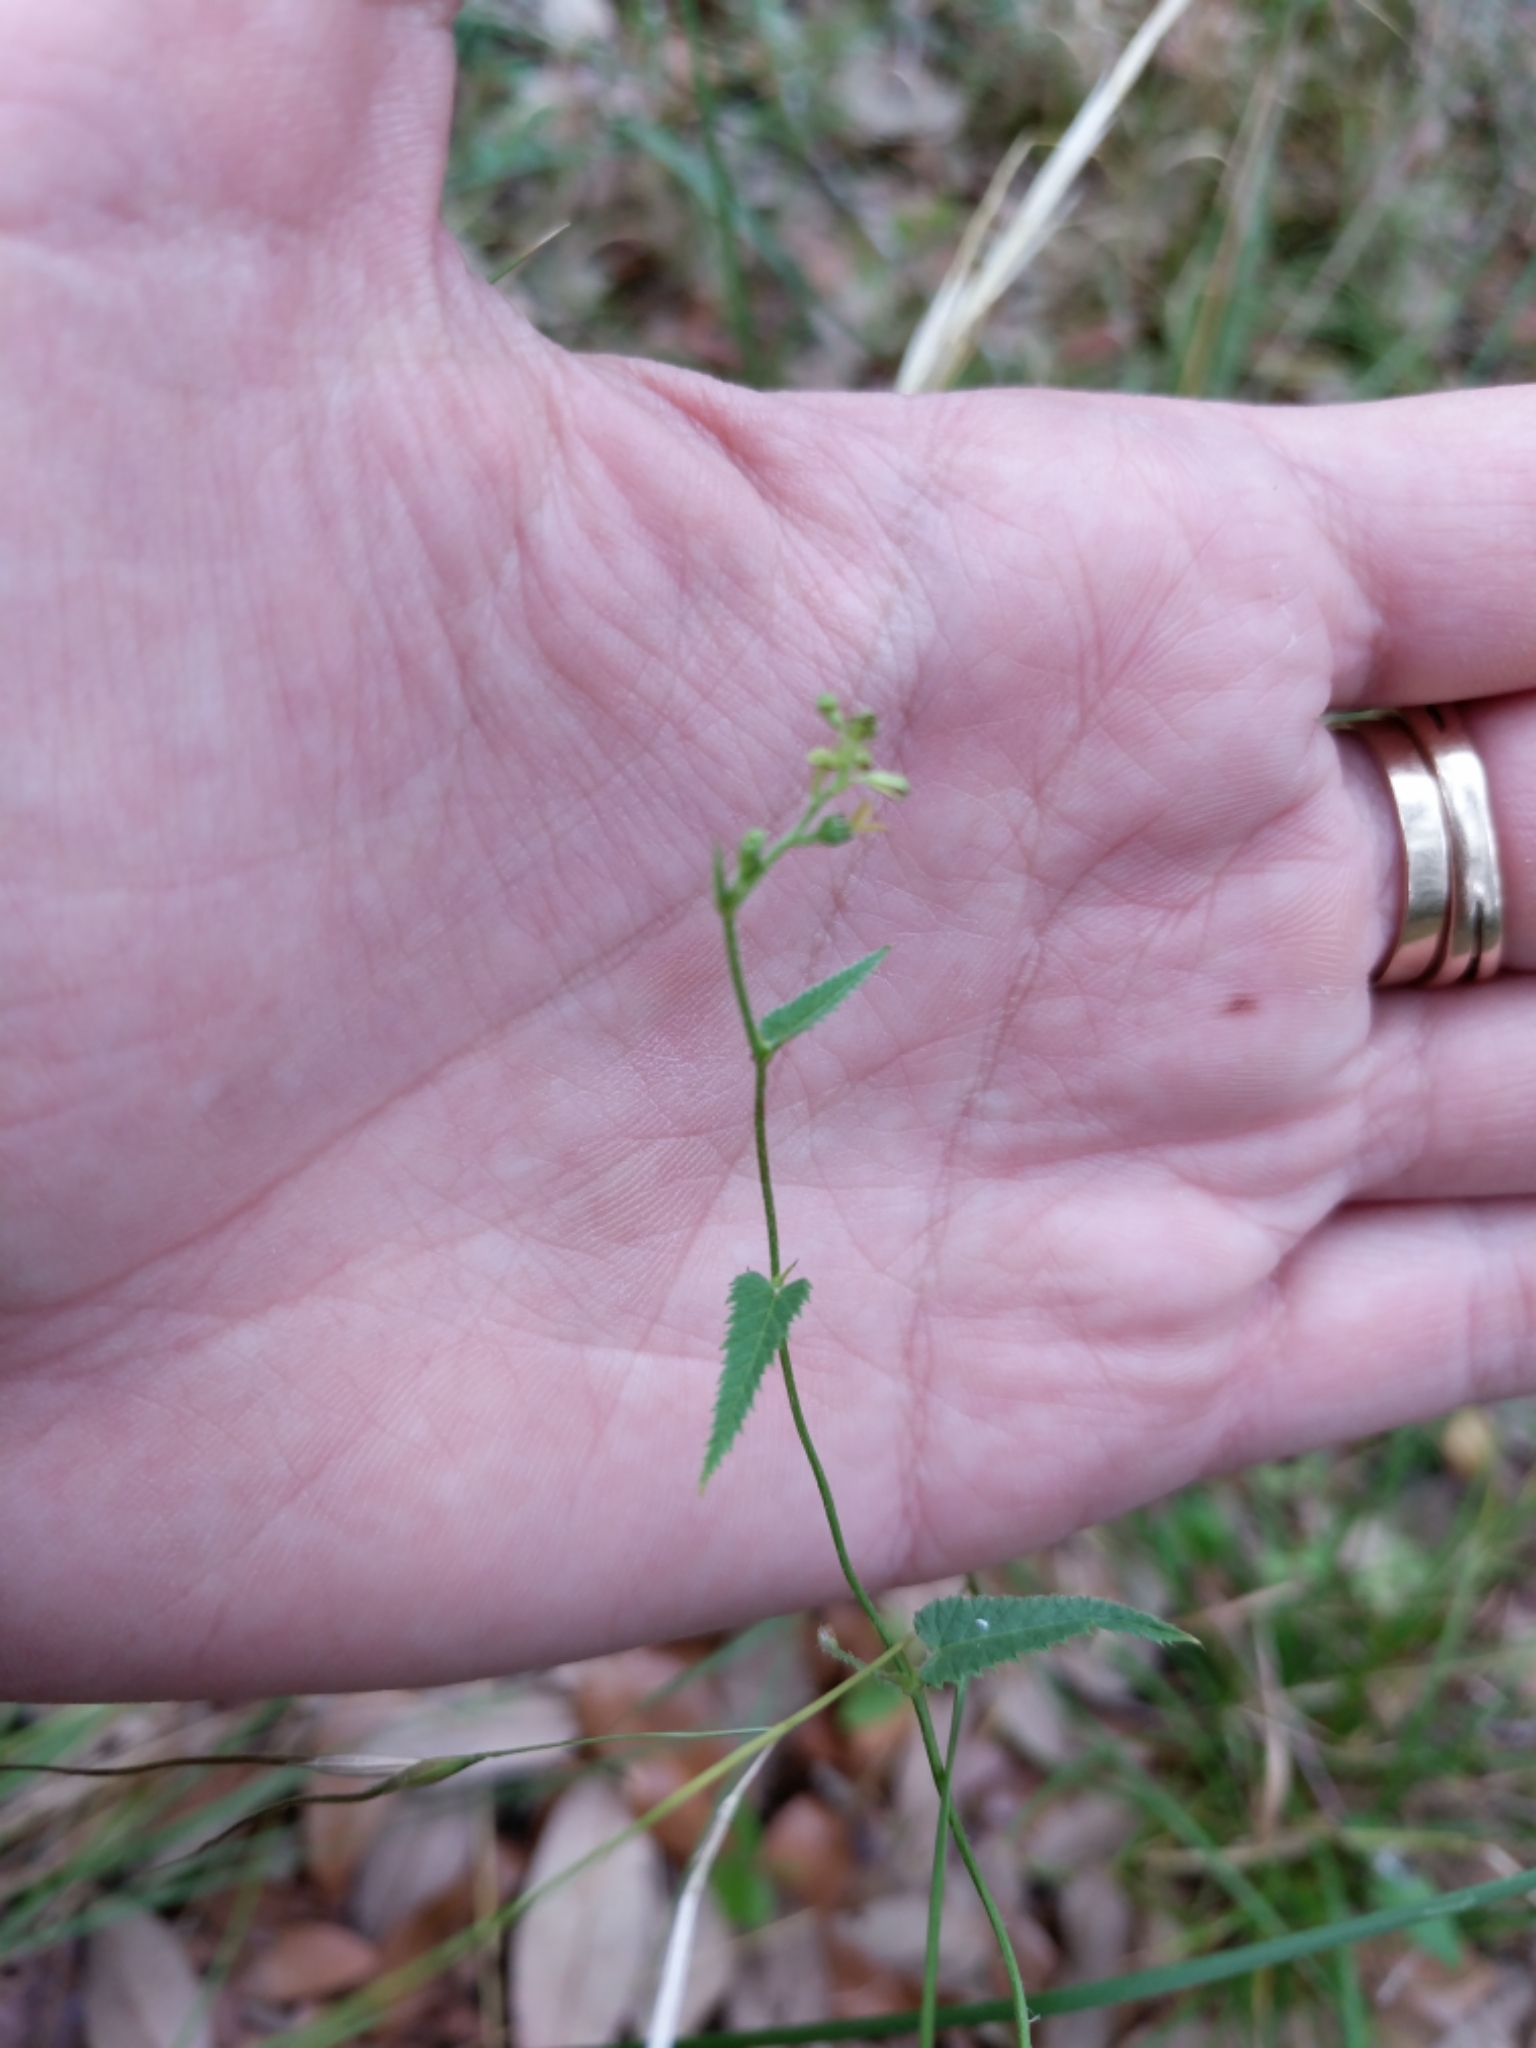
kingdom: Plantae
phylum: Tracheophyta
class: Magnoliopsida
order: Malpighiales
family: Euphorbiaceae
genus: Tragia
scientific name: Tragia brevispica
